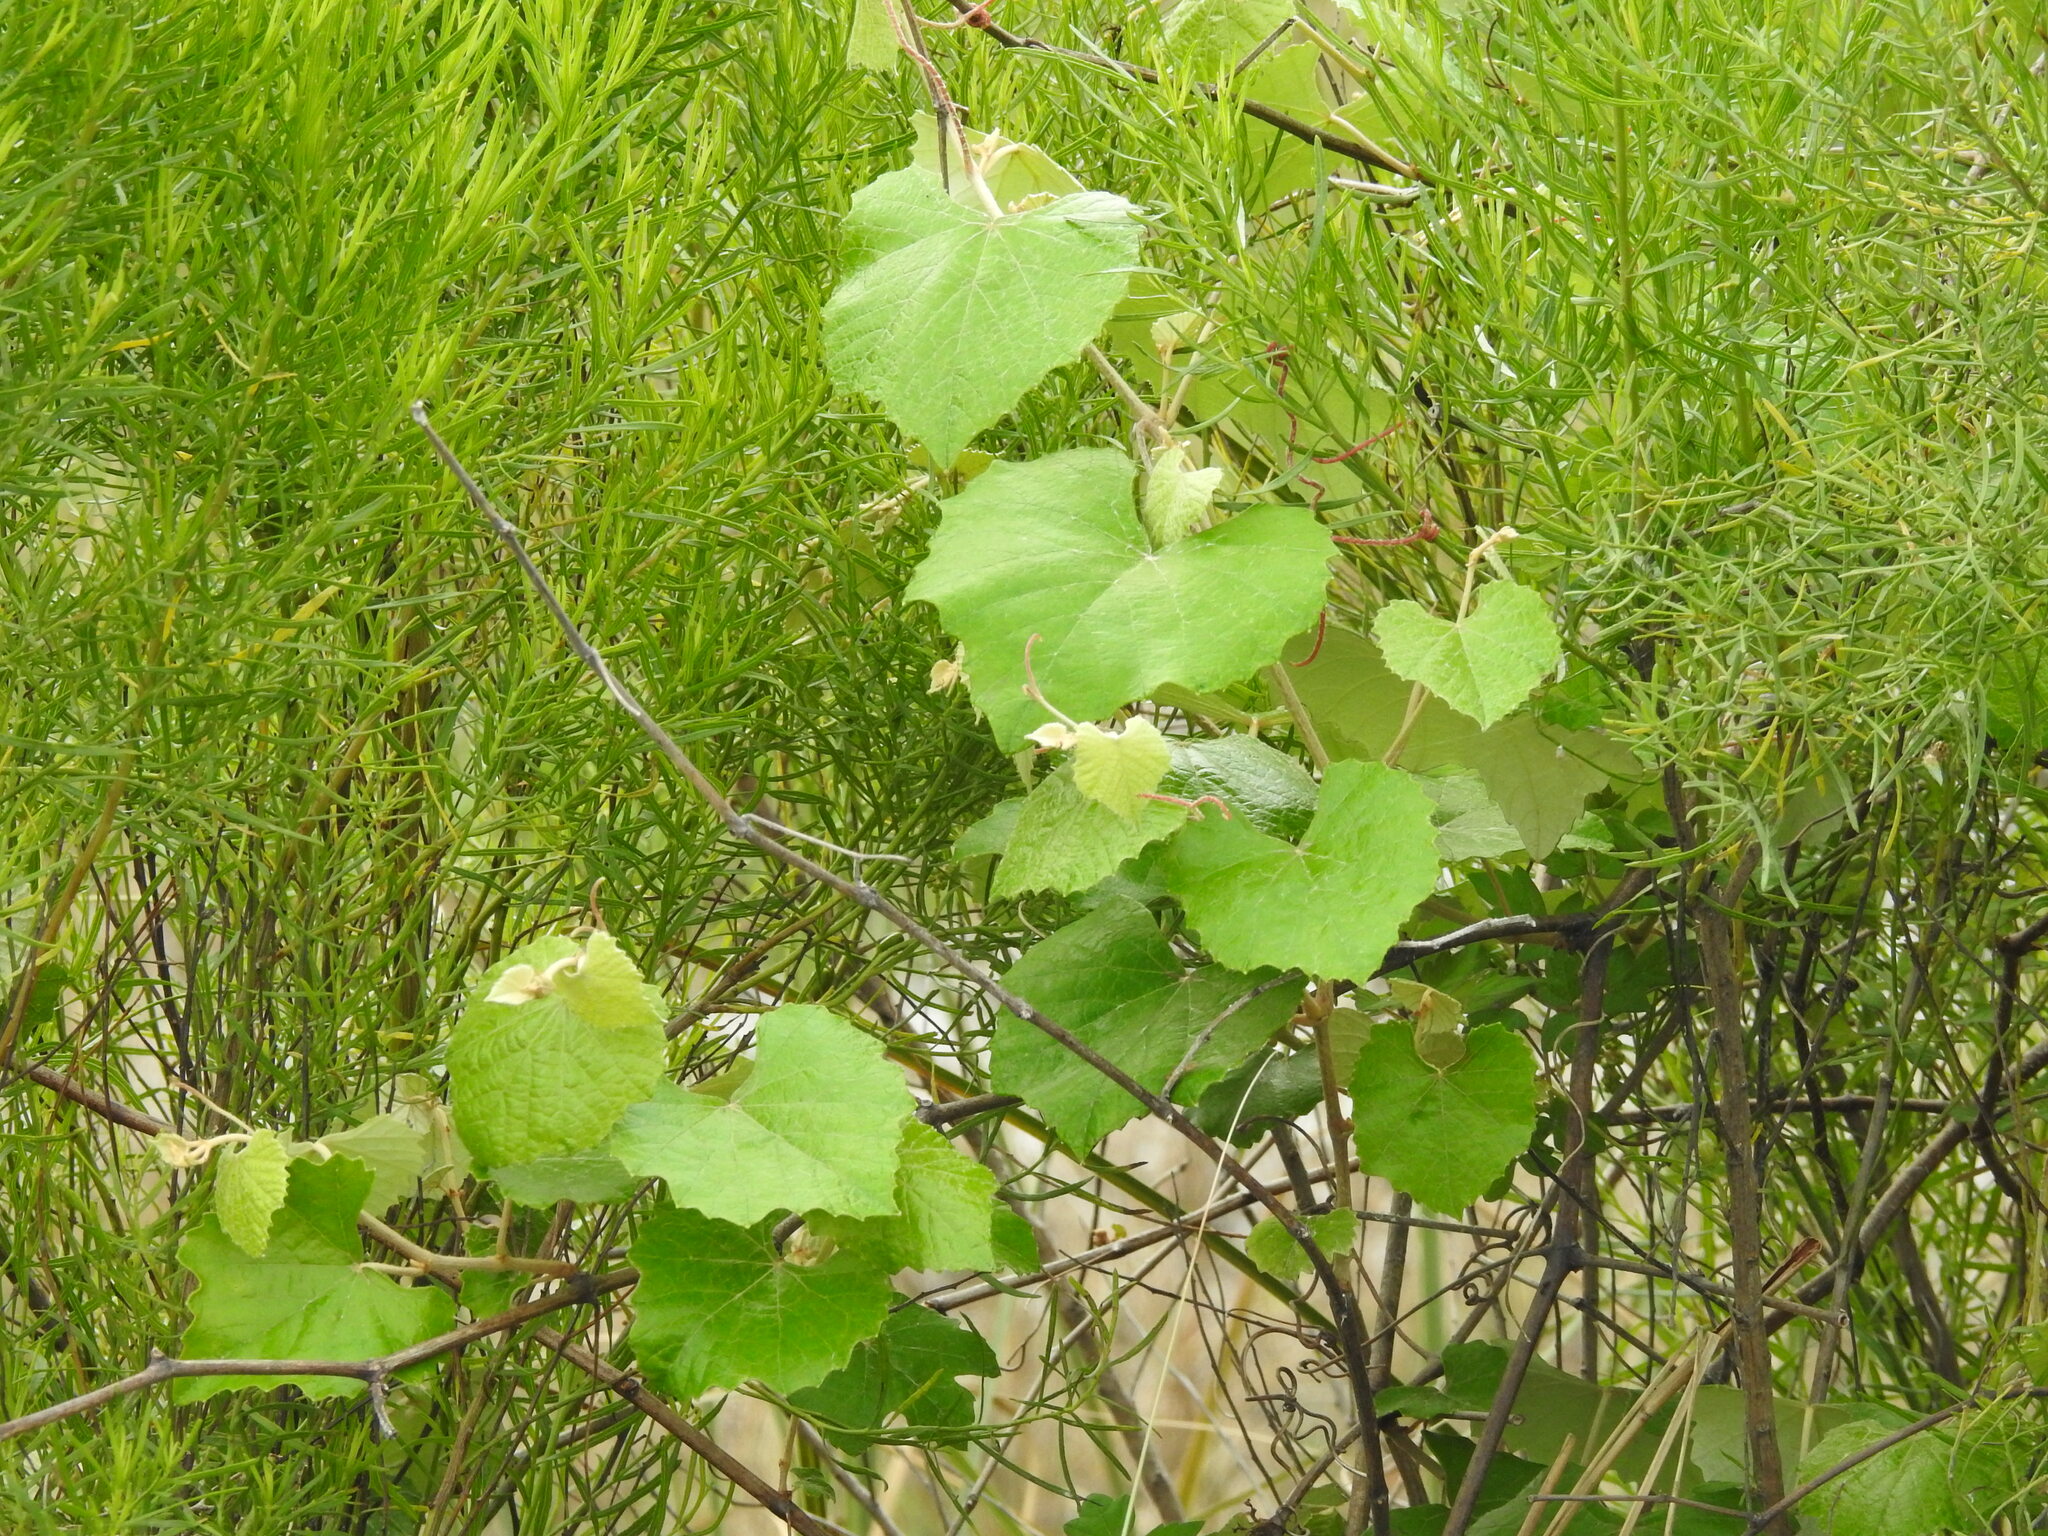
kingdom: Plantae
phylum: Tracheophyta
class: Magnoliopsida
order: Vitales
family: Vitaceae
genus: Vitis
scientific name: Vitis shuttleworthii
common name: Caloosa grape
